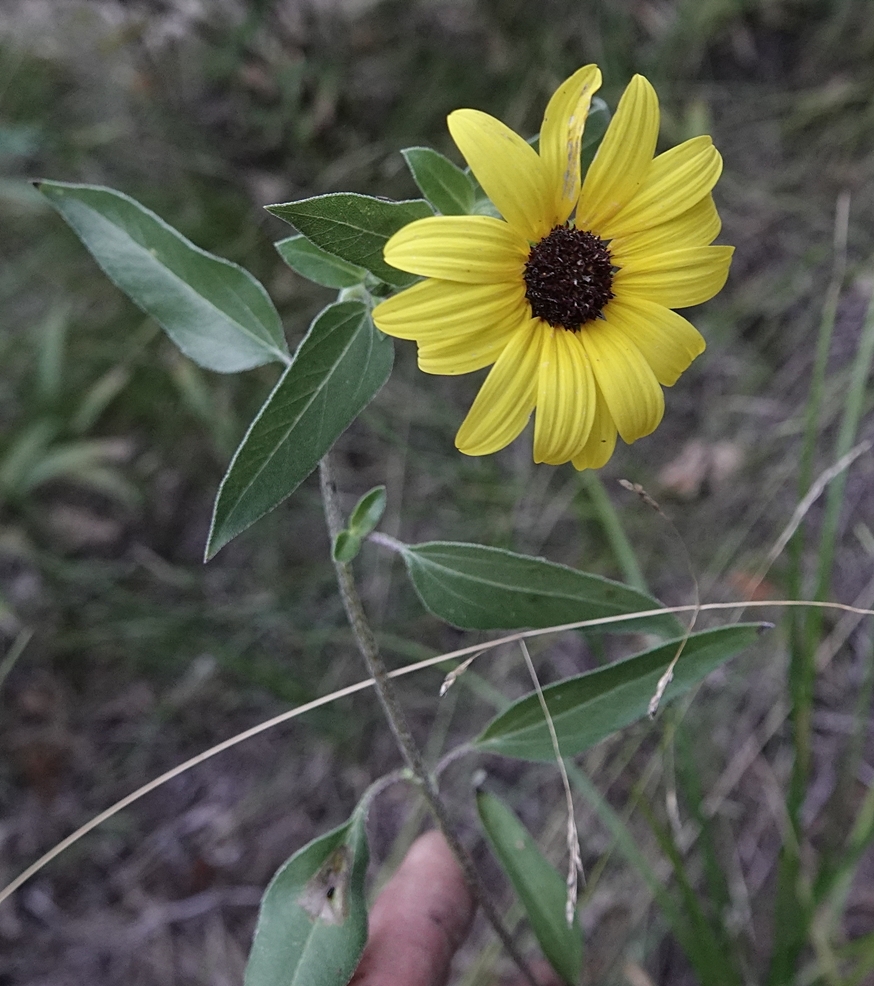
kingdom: Plantae
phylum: Tracheophyta
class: Magnoliopsida
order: Asterales
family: Asteraceae
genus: Helianthus
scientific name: Helianthus petiolaris
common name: Lesser sunflower
